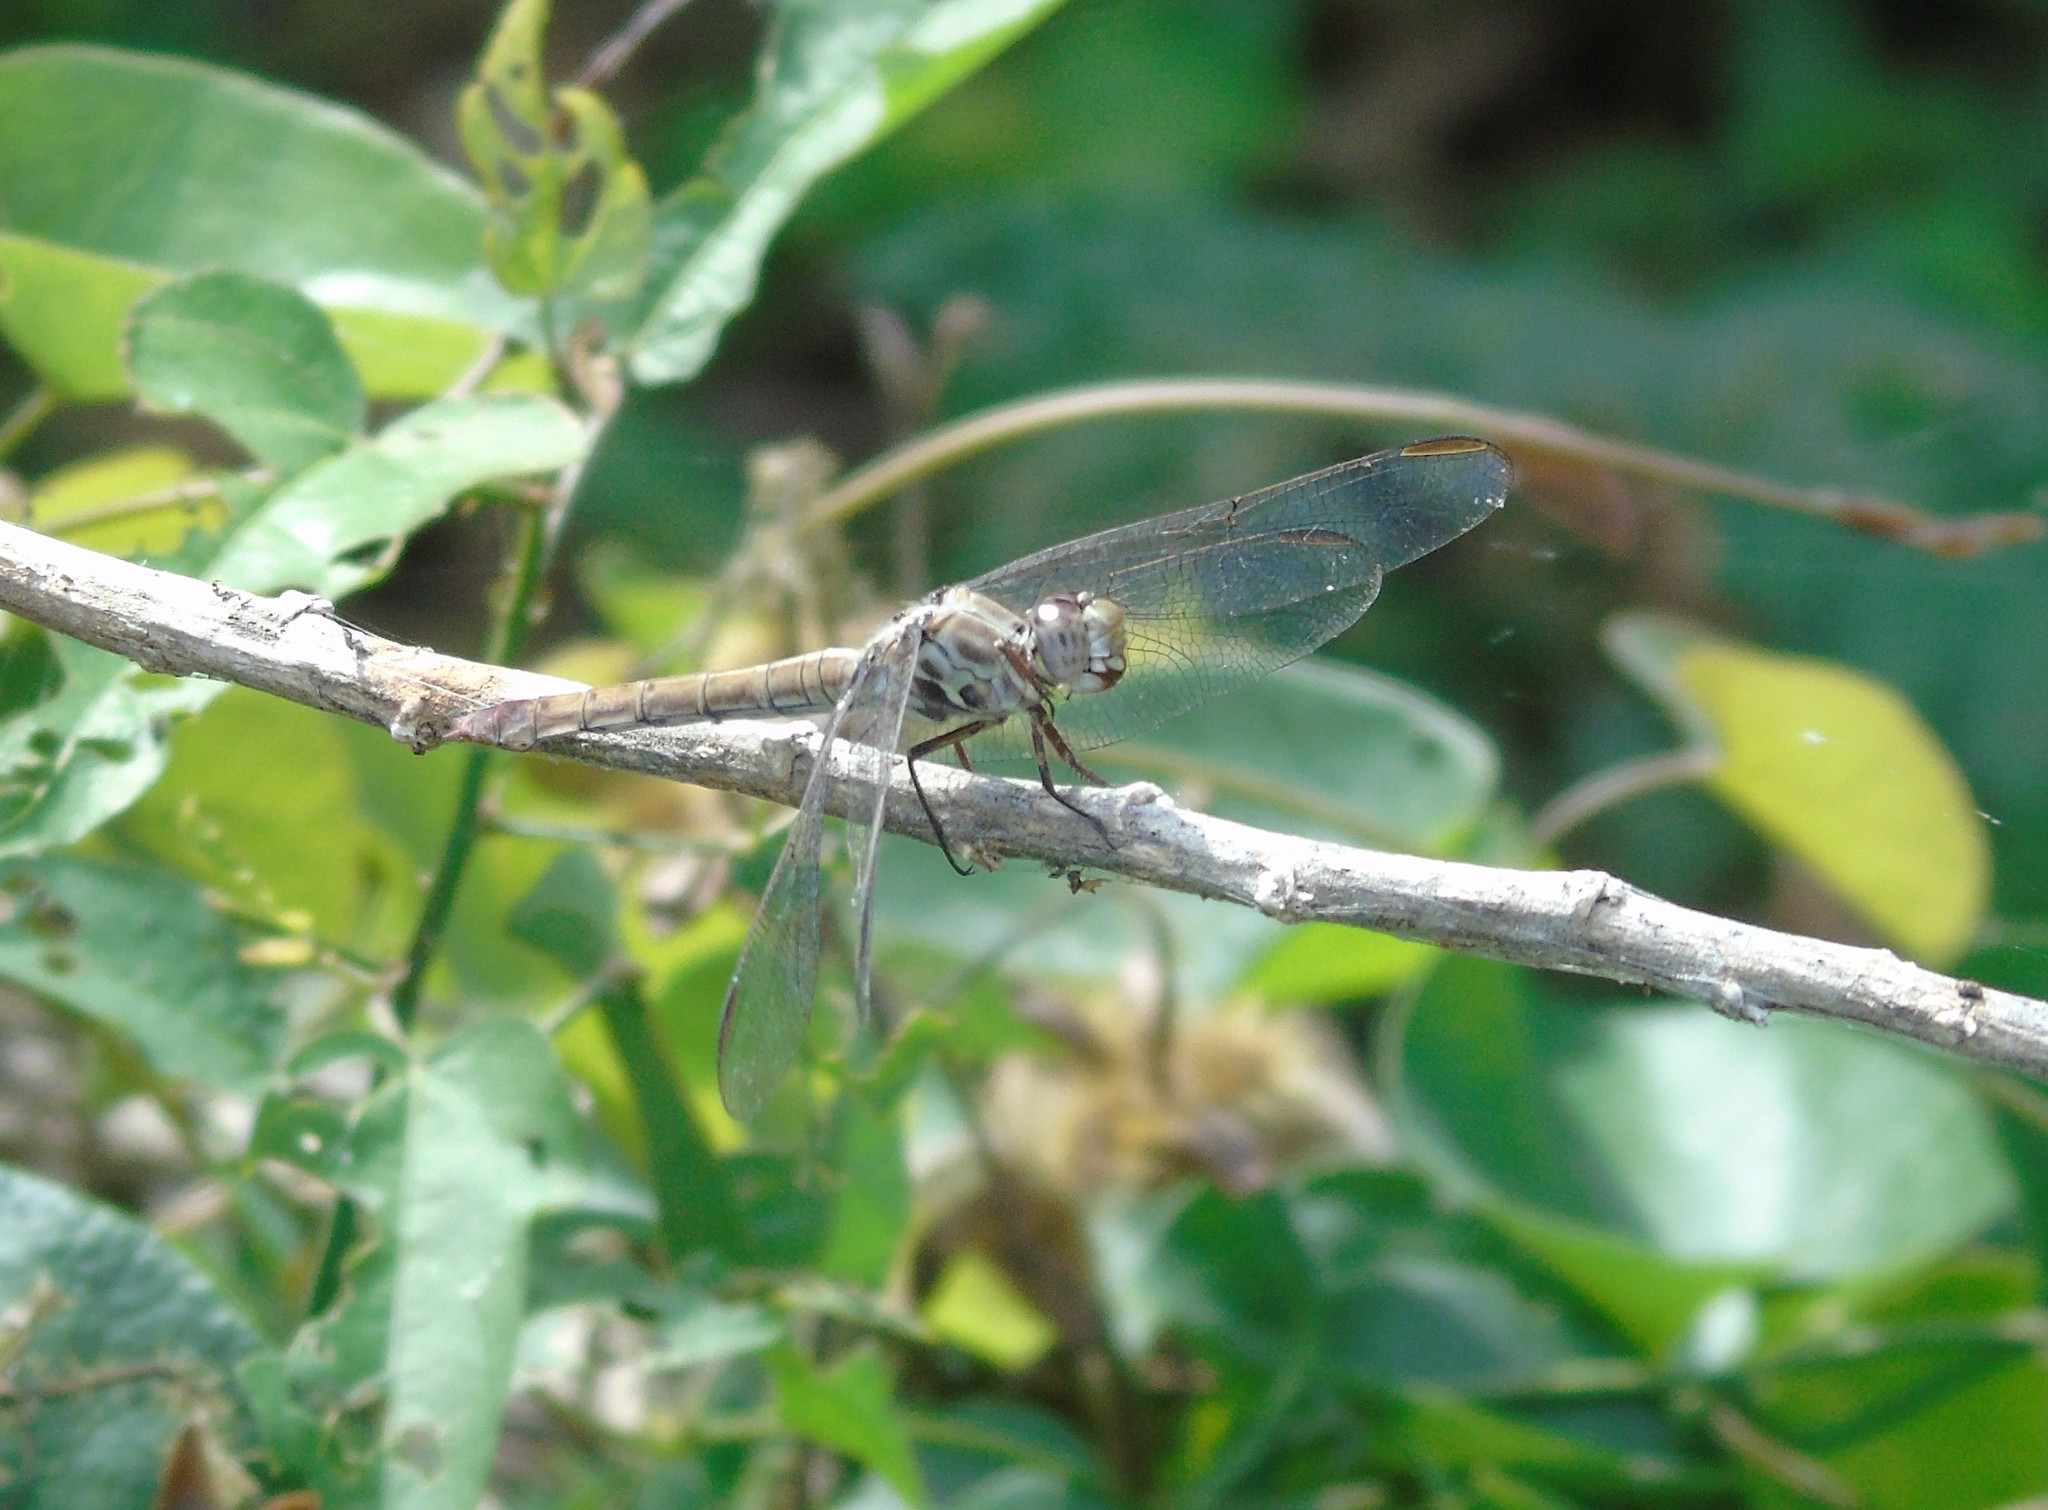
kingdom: Animalia
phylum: Arthropoda
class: Insecta
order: Odonata
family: Libellulidae
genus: Orthemis
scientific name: Orthemis ferruginea
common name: Roseate skimmer
